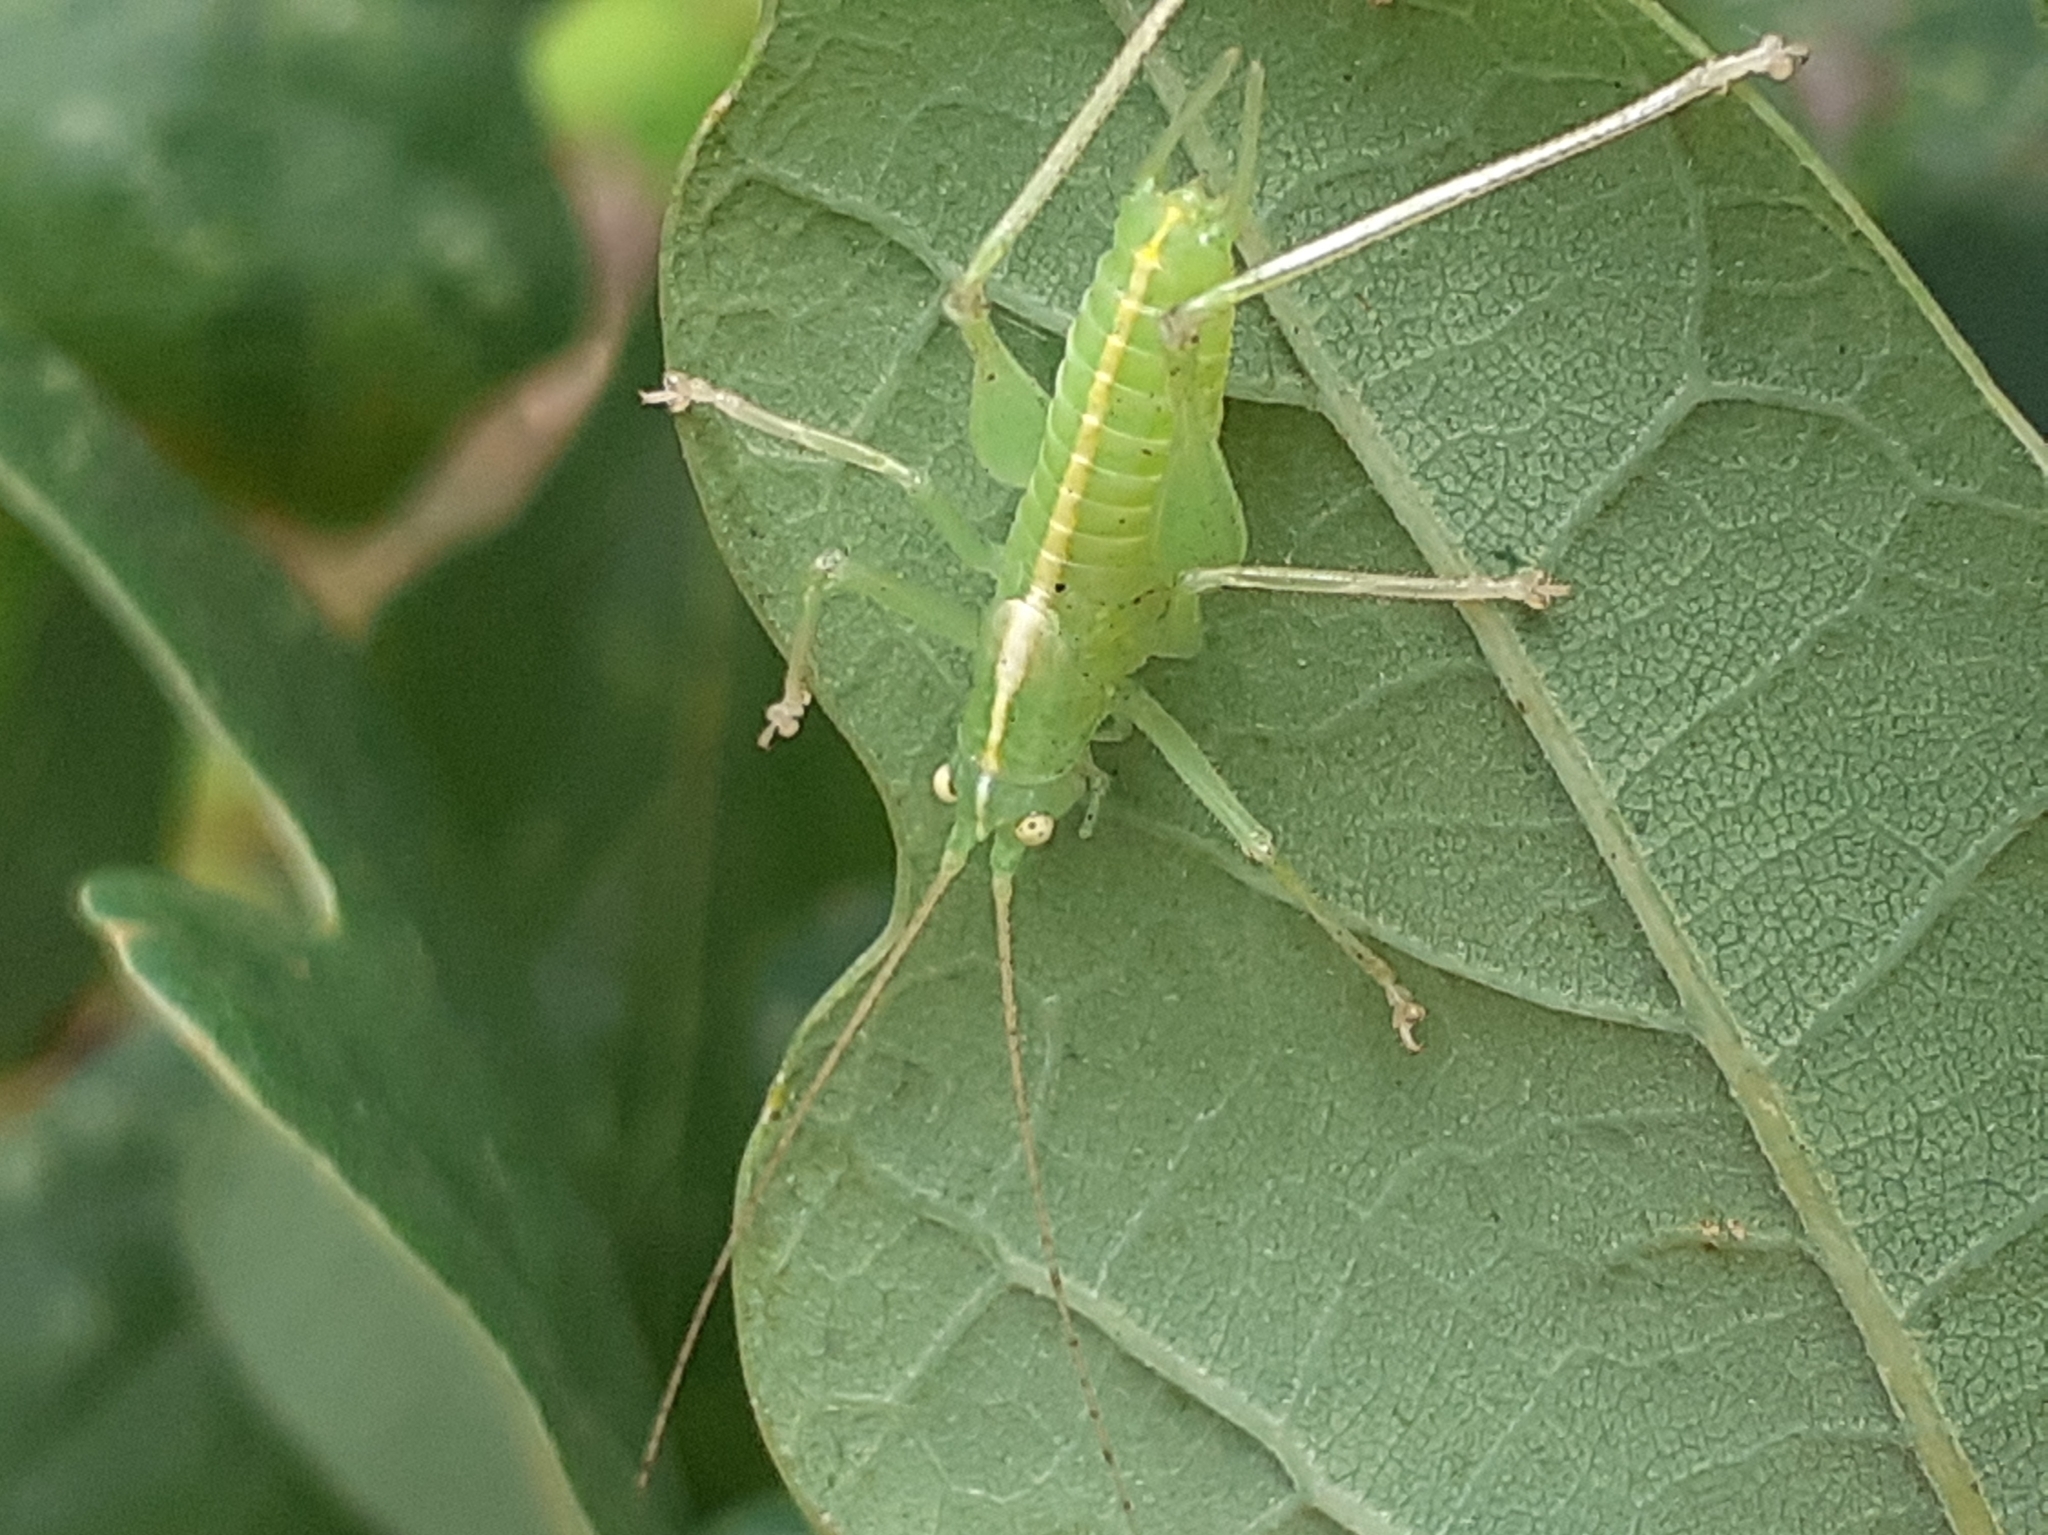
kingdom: Animalia
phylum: Arthropoda
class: Insecta
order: Orthoptera
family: Tettigoniidae
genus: Meconema
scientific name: Meconema meridionale
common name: Southern oak bush-cricket
